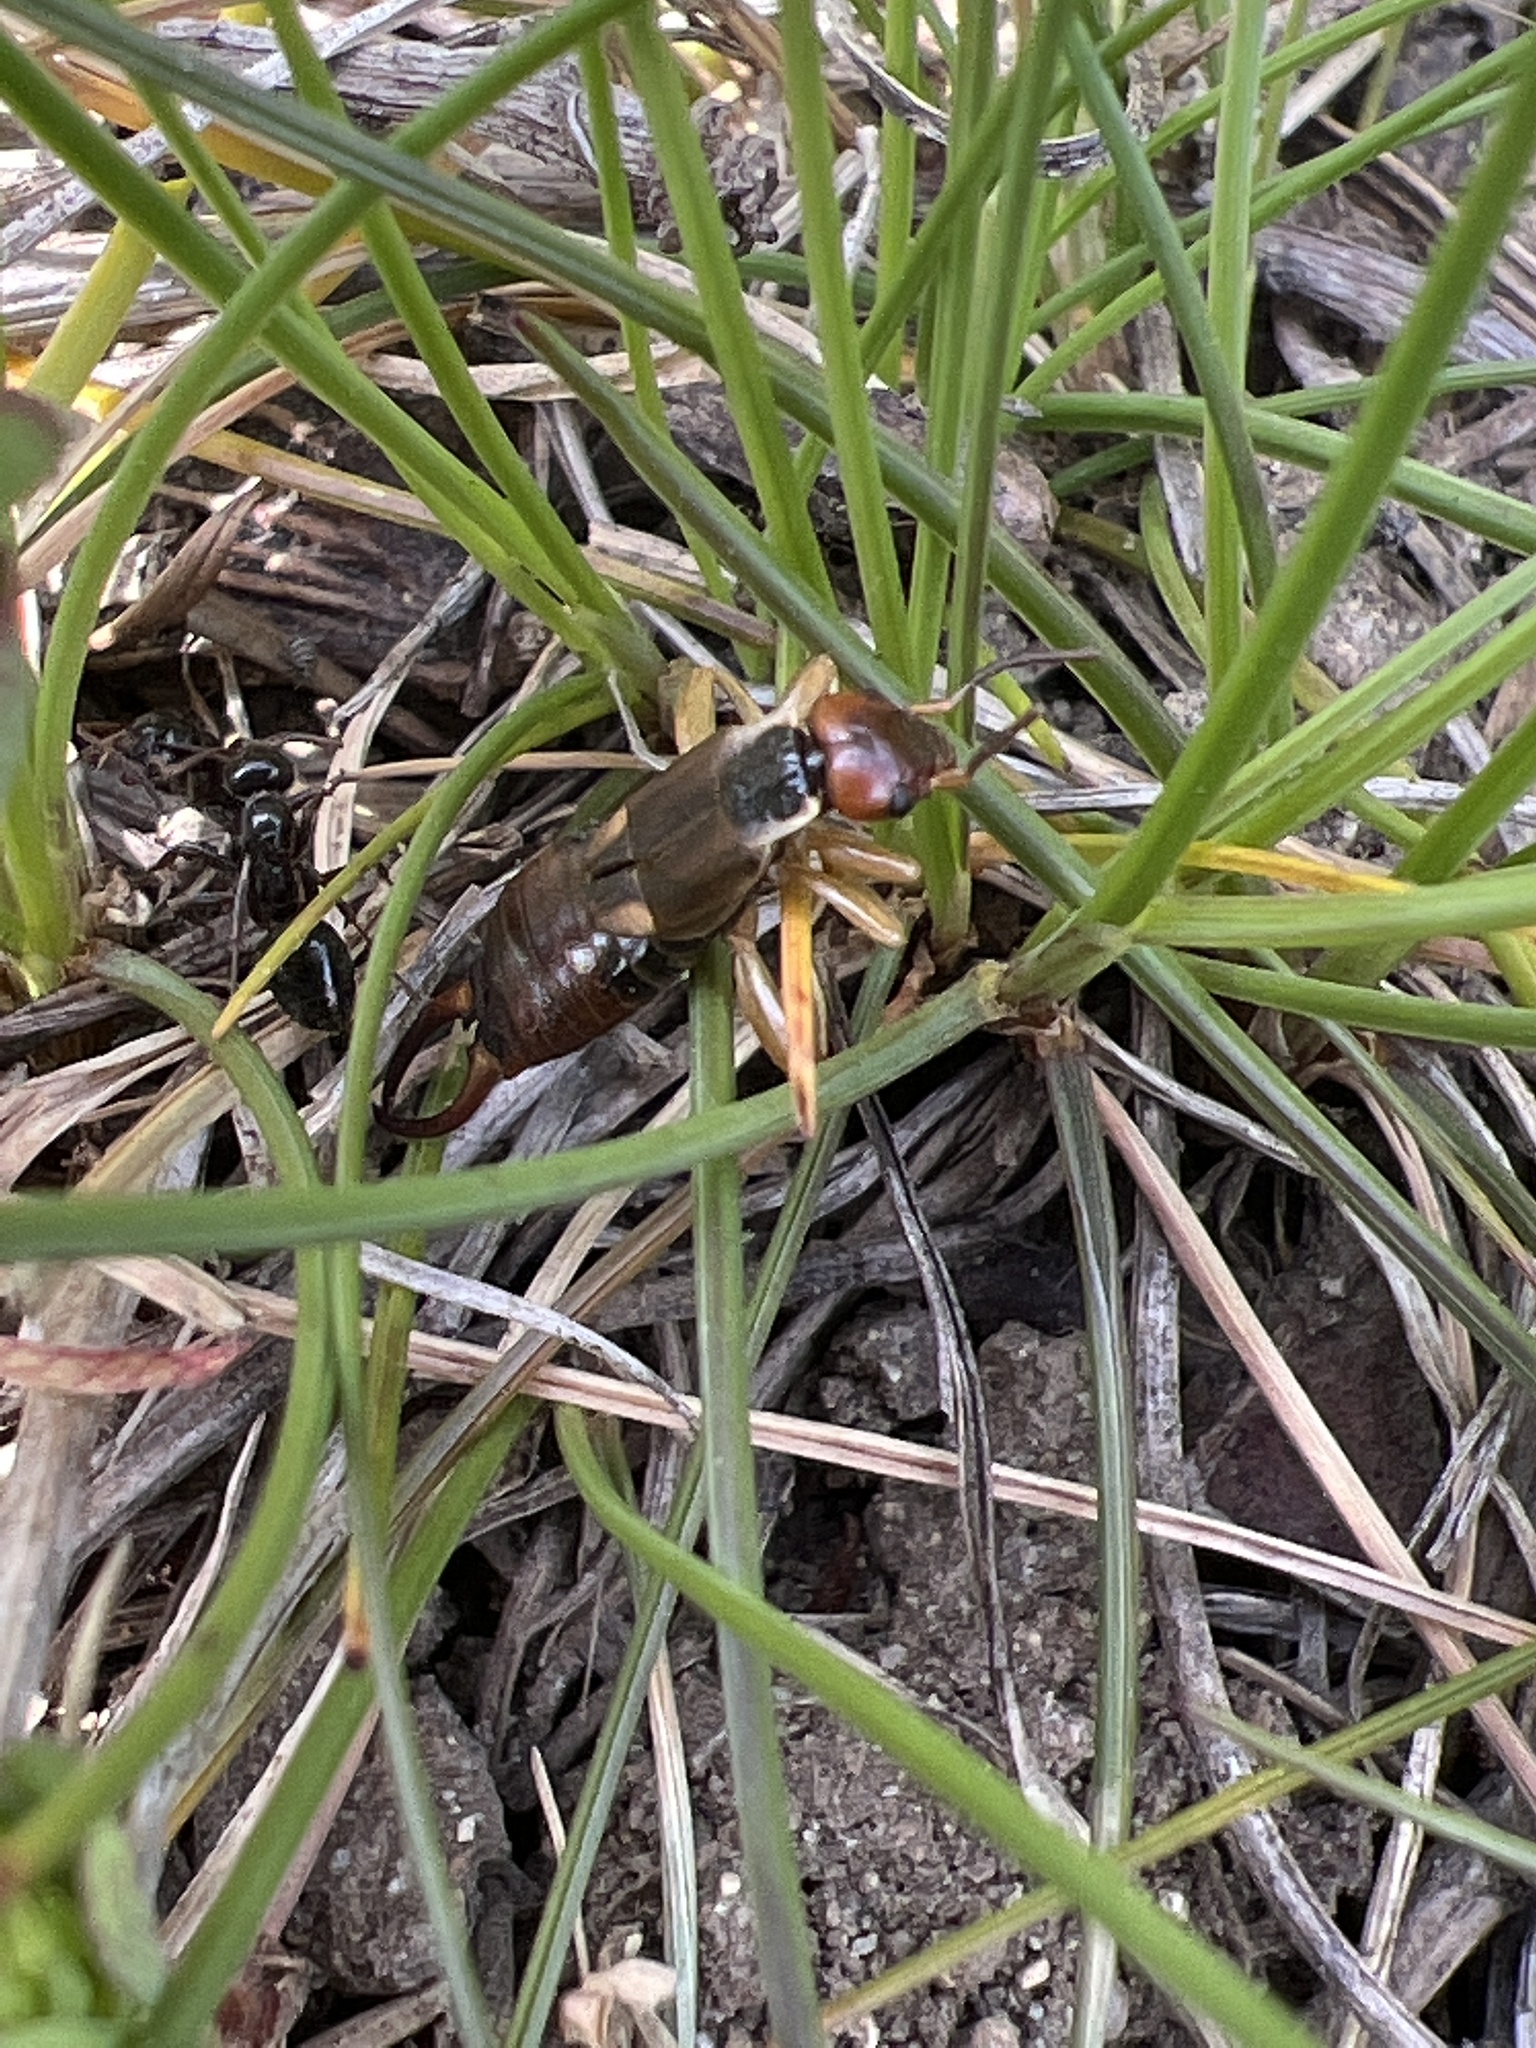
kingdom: Animalia
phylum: Arthropoda
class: Insecta
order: Dermaptera
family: Forficulidae
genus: Forficula
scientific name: Forficula
